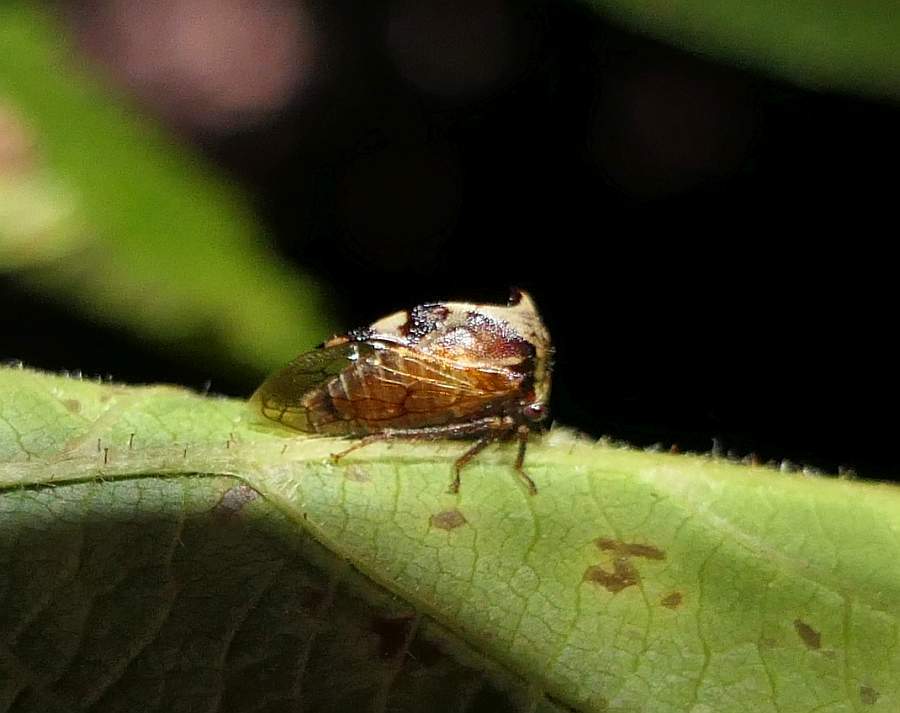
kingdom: Animalia
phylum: Arthropoda
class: Insecta
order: Hemiptera
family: Membracidae
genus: Stictocephala
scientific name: Stictocephala diceros
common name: Two-horned treehopper
